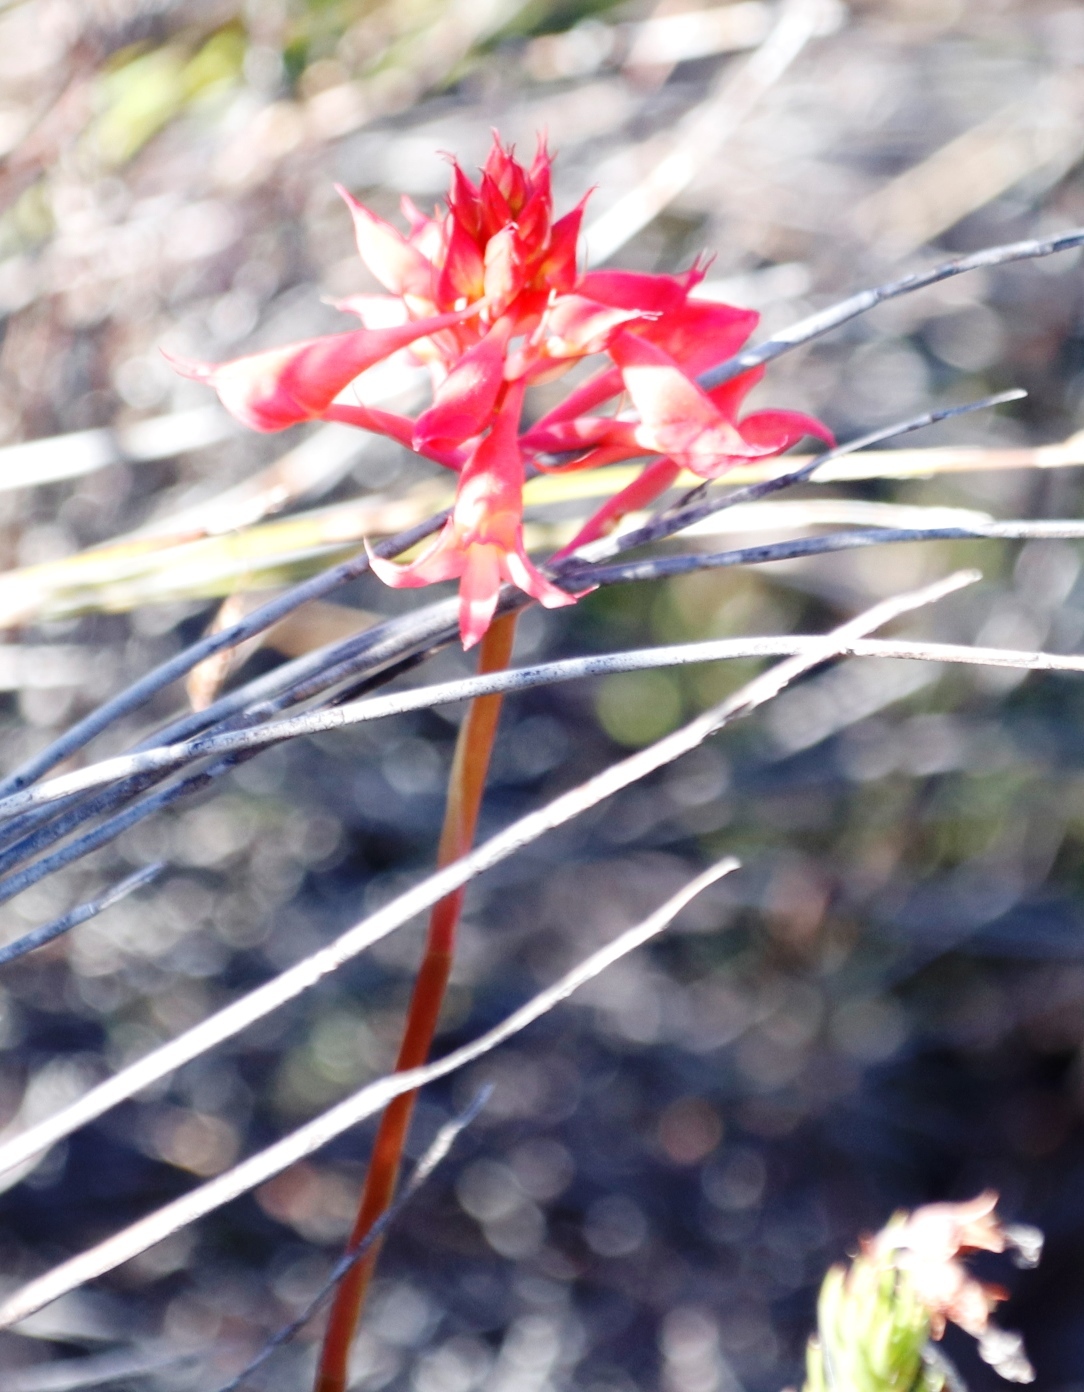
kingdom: Plantae
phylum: Tracheophyta
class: Liliopsida
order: Asparagales
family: Orchidaceae
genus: Disa
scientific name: Disa ferruginea
